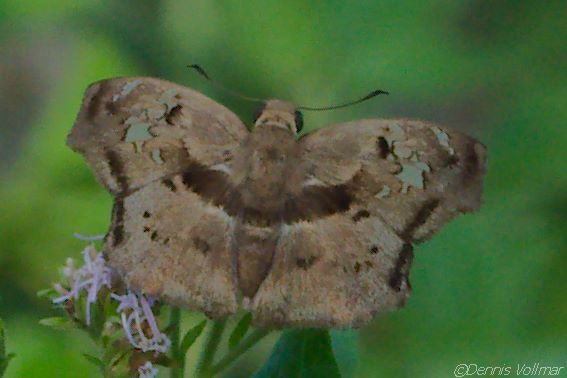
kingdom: Animalia
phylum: Arthropoda
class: Insecta
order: Lepidoptera
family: Hesperiidae
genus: Quadrus
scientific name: Quadrus lugubris
